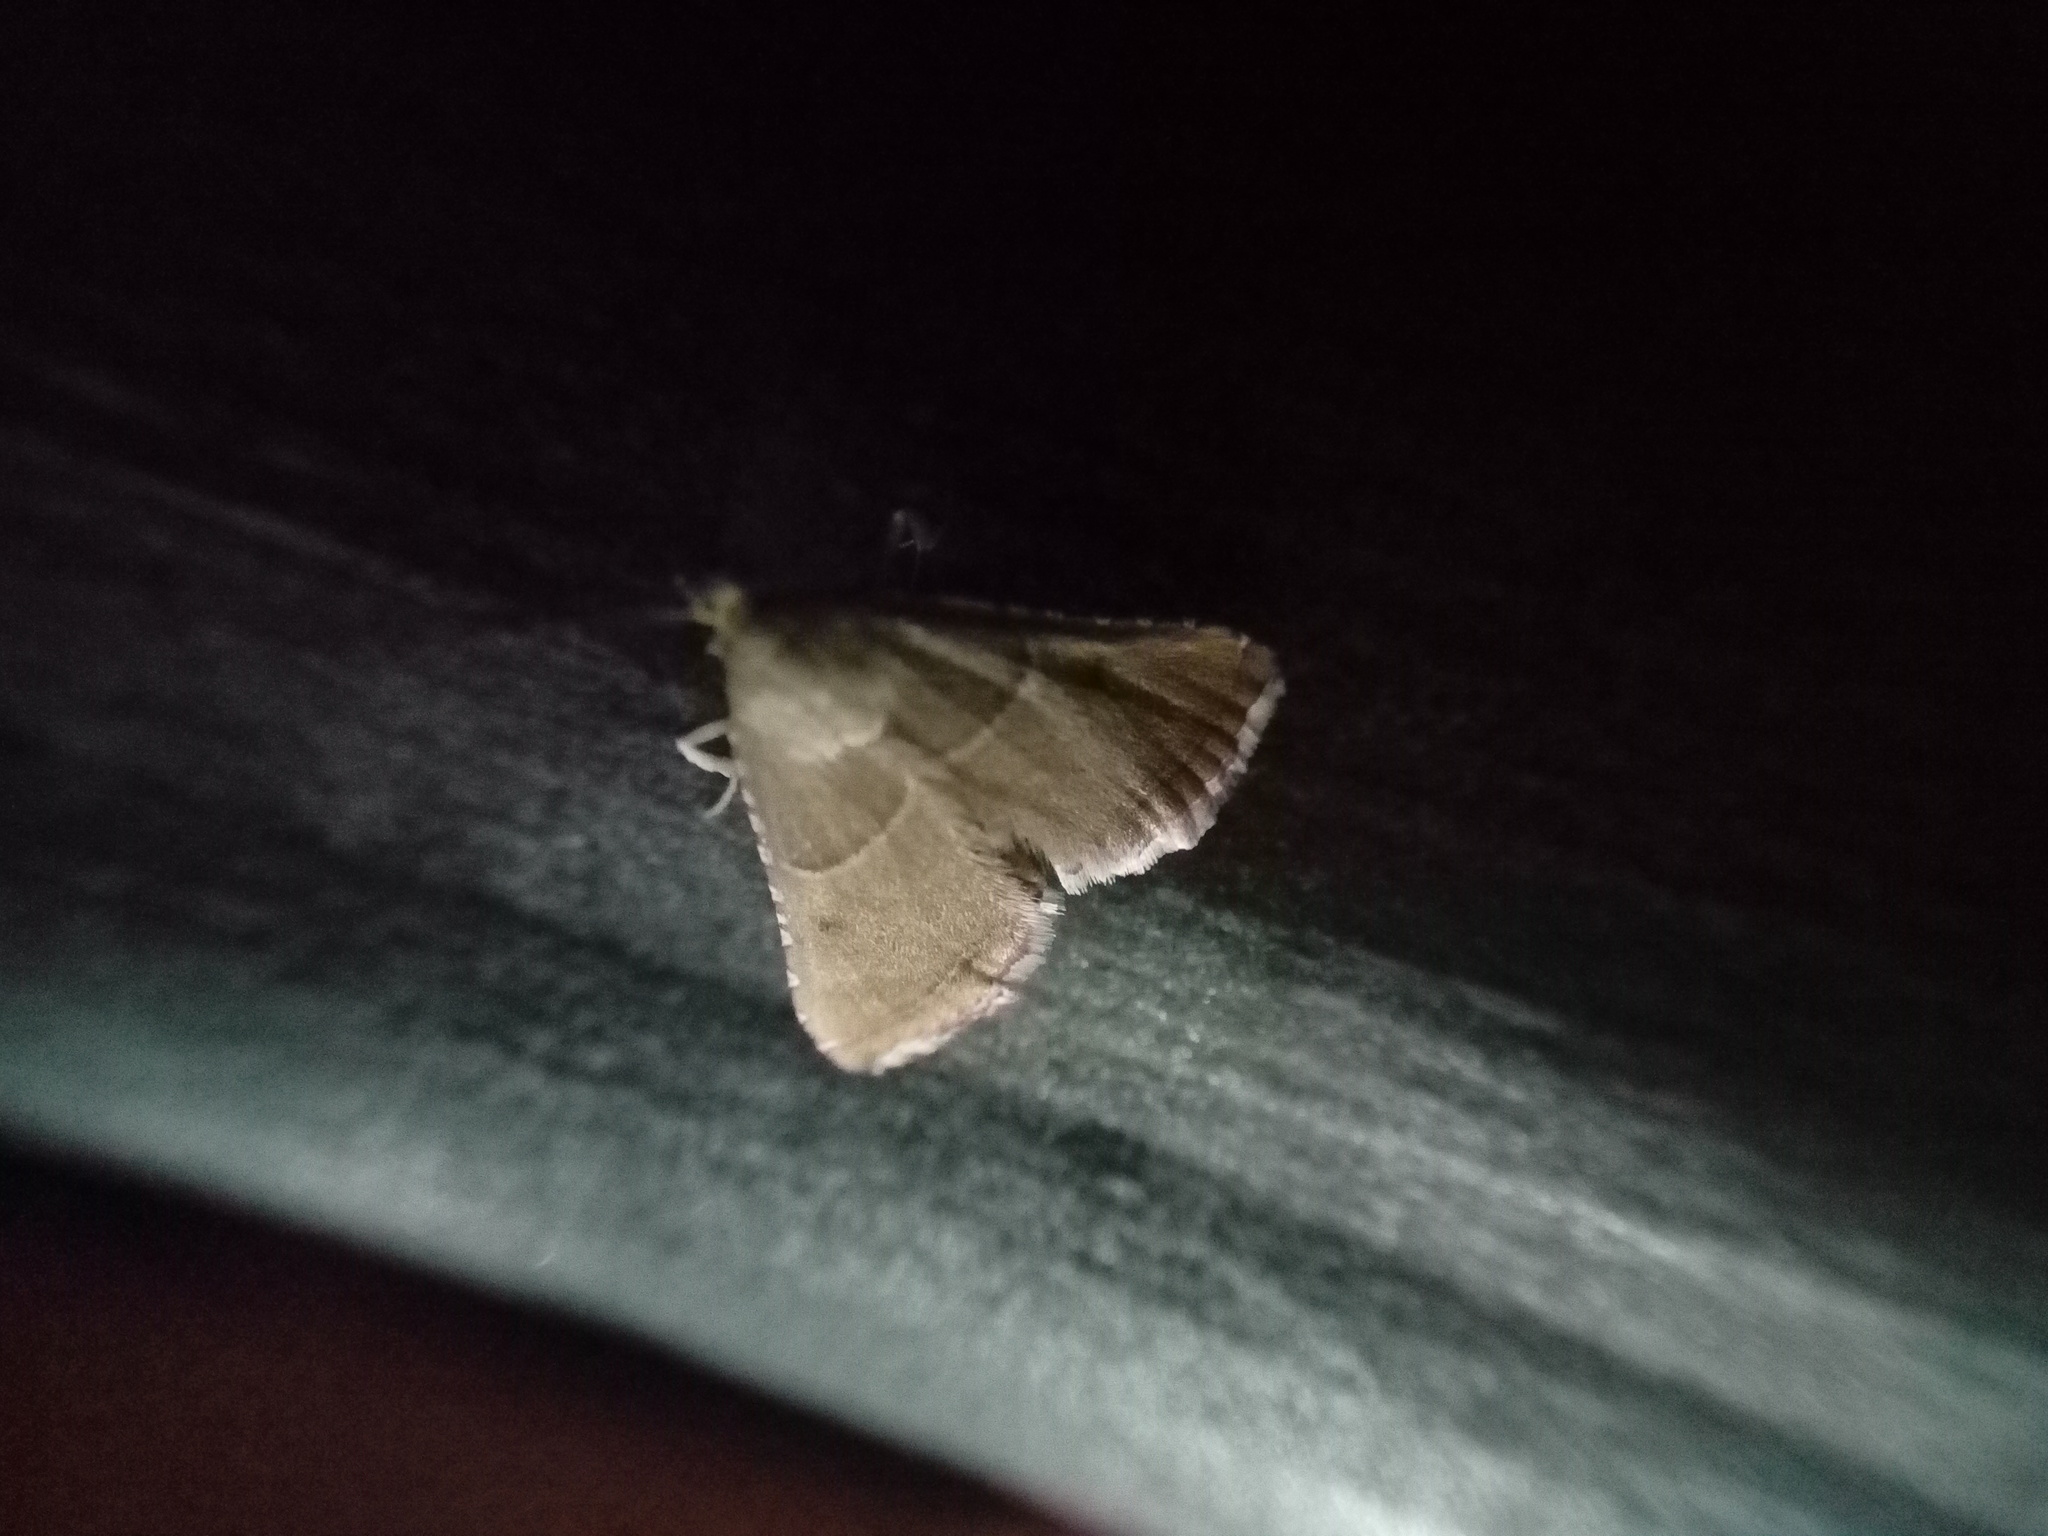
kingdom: Animalia
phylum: Arthropoda
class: Insecta
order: Lepidoptera
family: Pyralidae
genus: Endotricha
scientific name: Endotricha flammealis
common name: Rosy tabby
